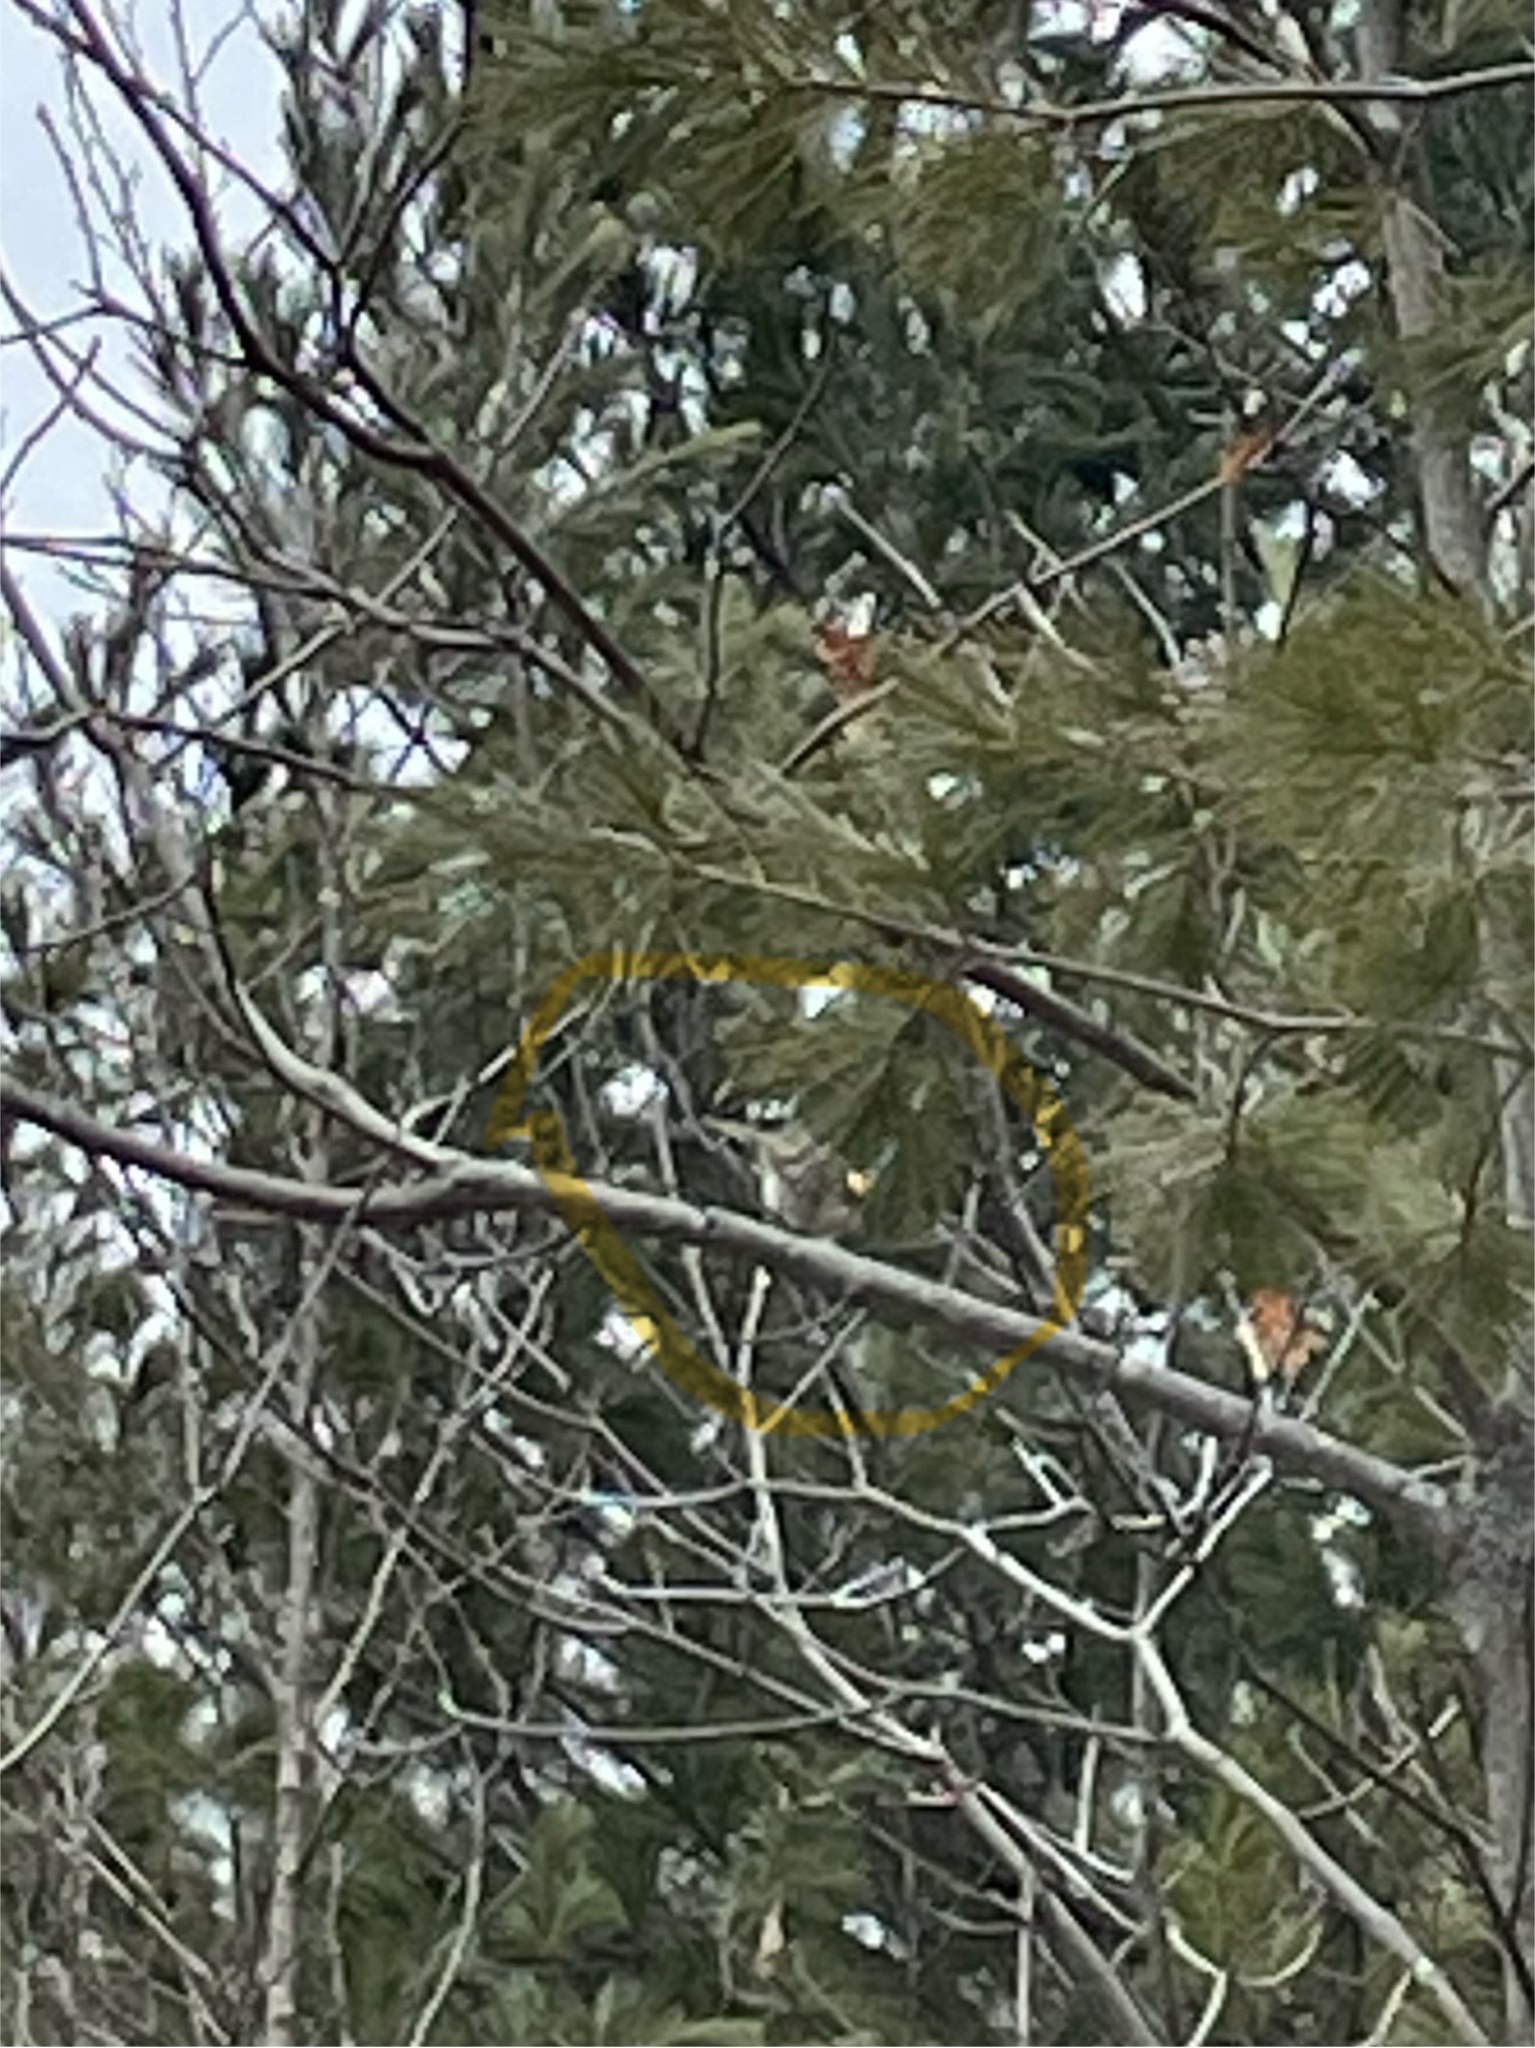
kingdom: Animalia
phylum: Chordata
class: Aves
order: Passeriformes
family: Regulidae
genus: Regulus
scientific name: Regulus satrapa
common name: Golden-crowned kinglet
